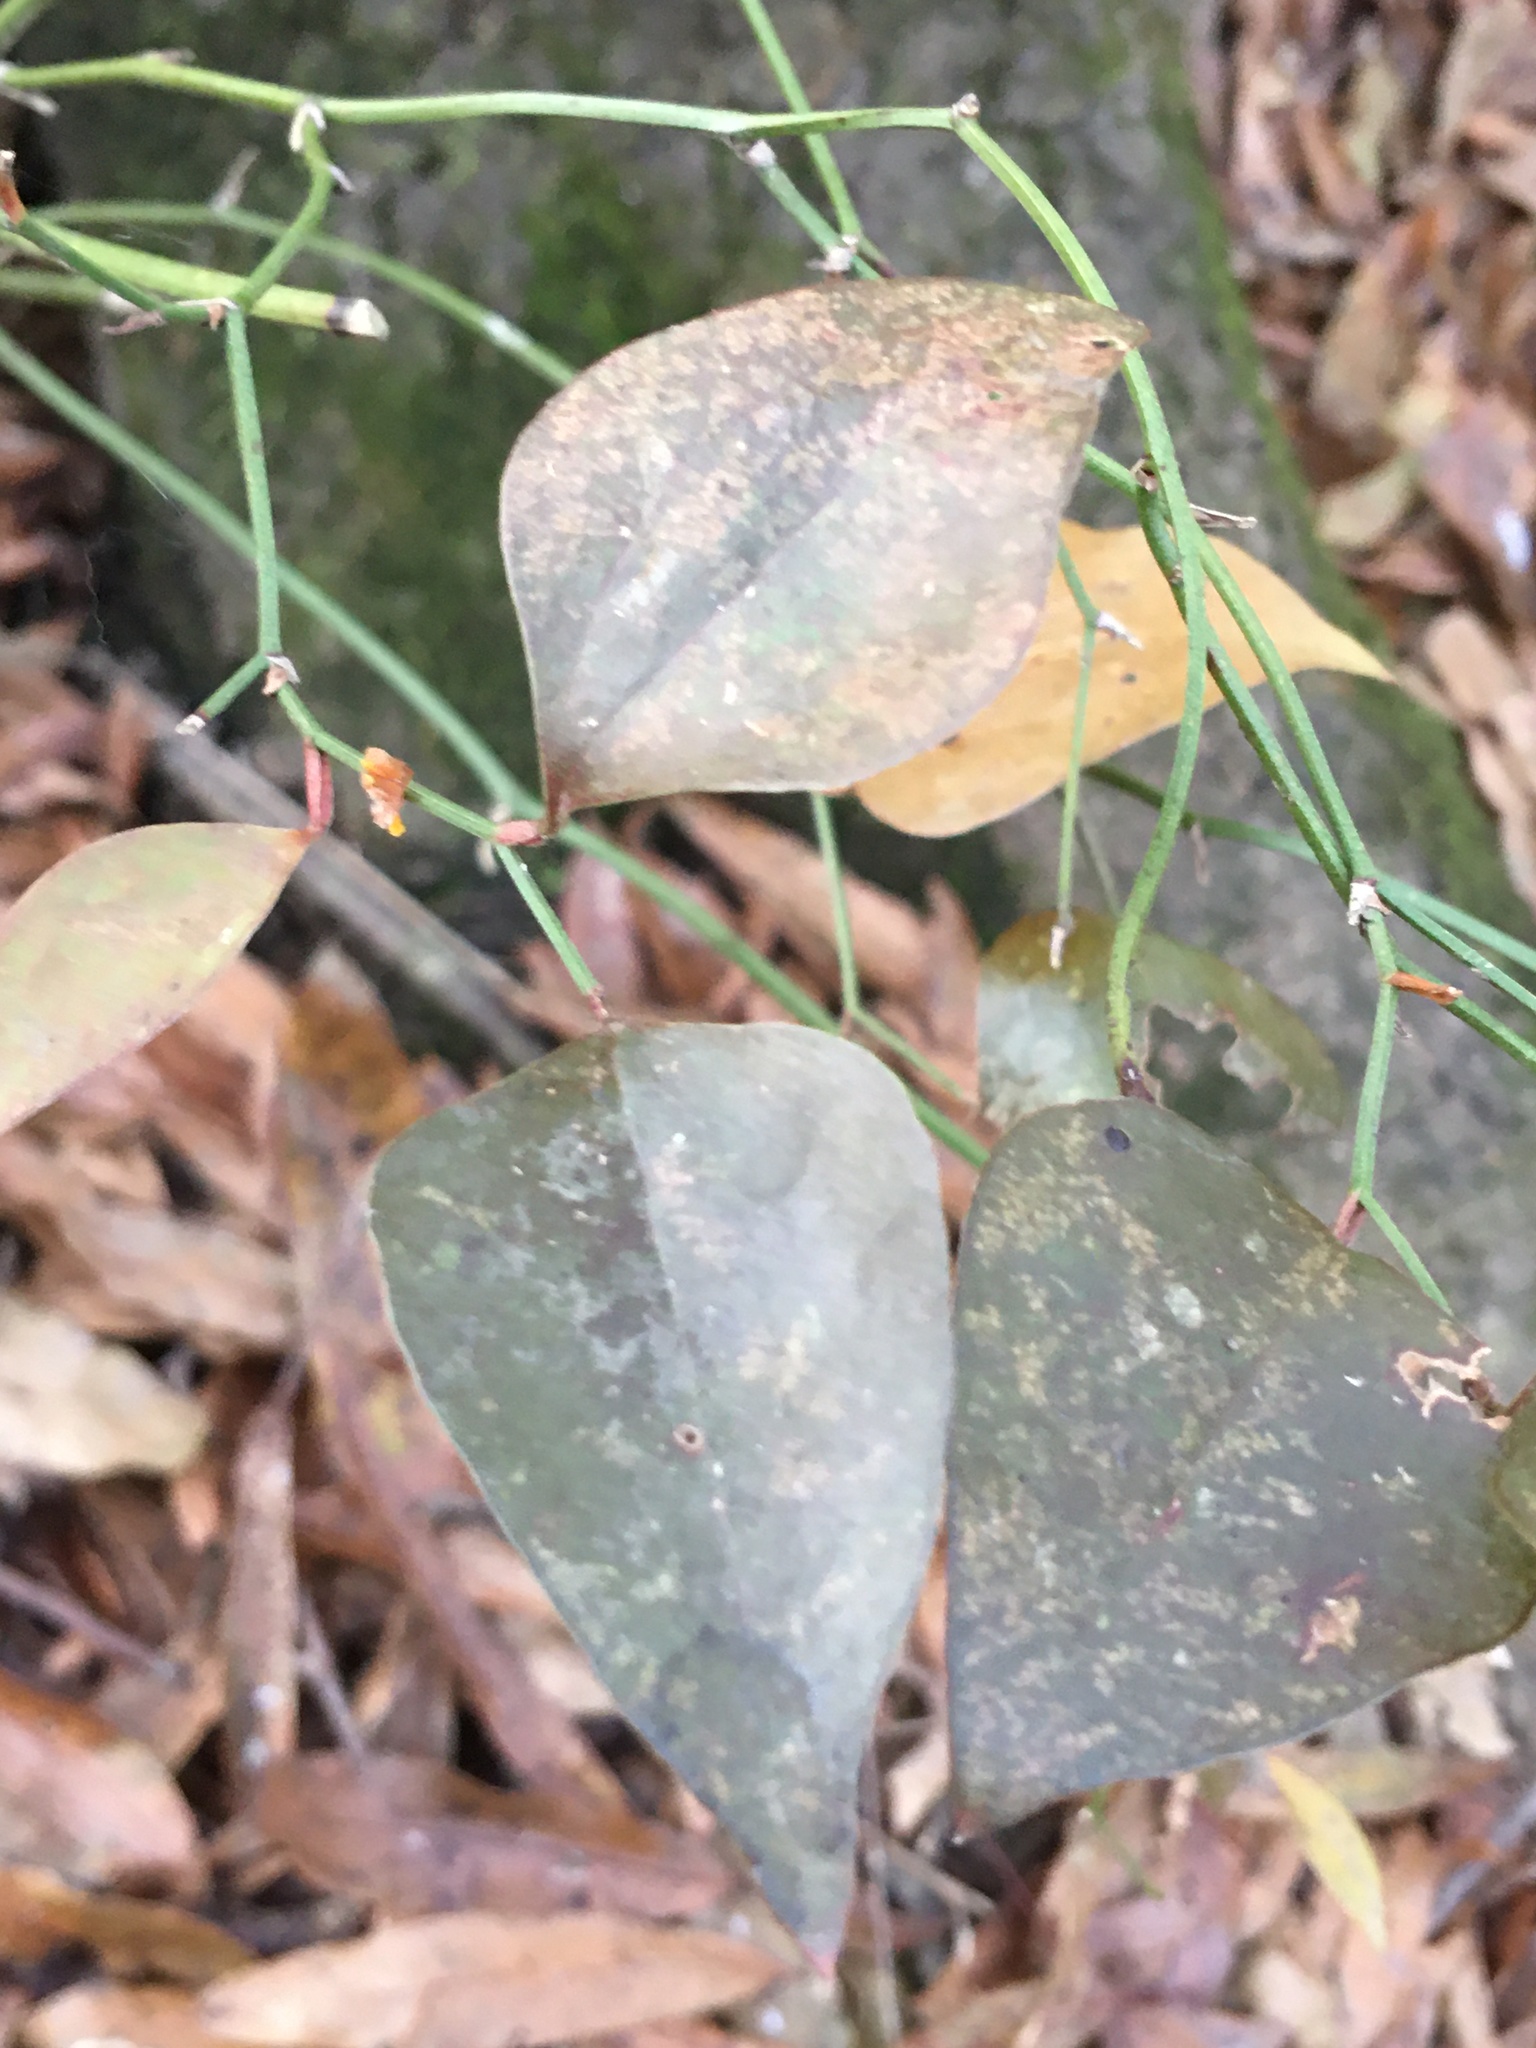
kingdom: Plantae
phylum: Tracheophyta
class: Liliopsida
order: Liliales
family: Smilacaceae
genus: Smilax
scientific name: Smilax glauca
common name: Cat greenbrier
